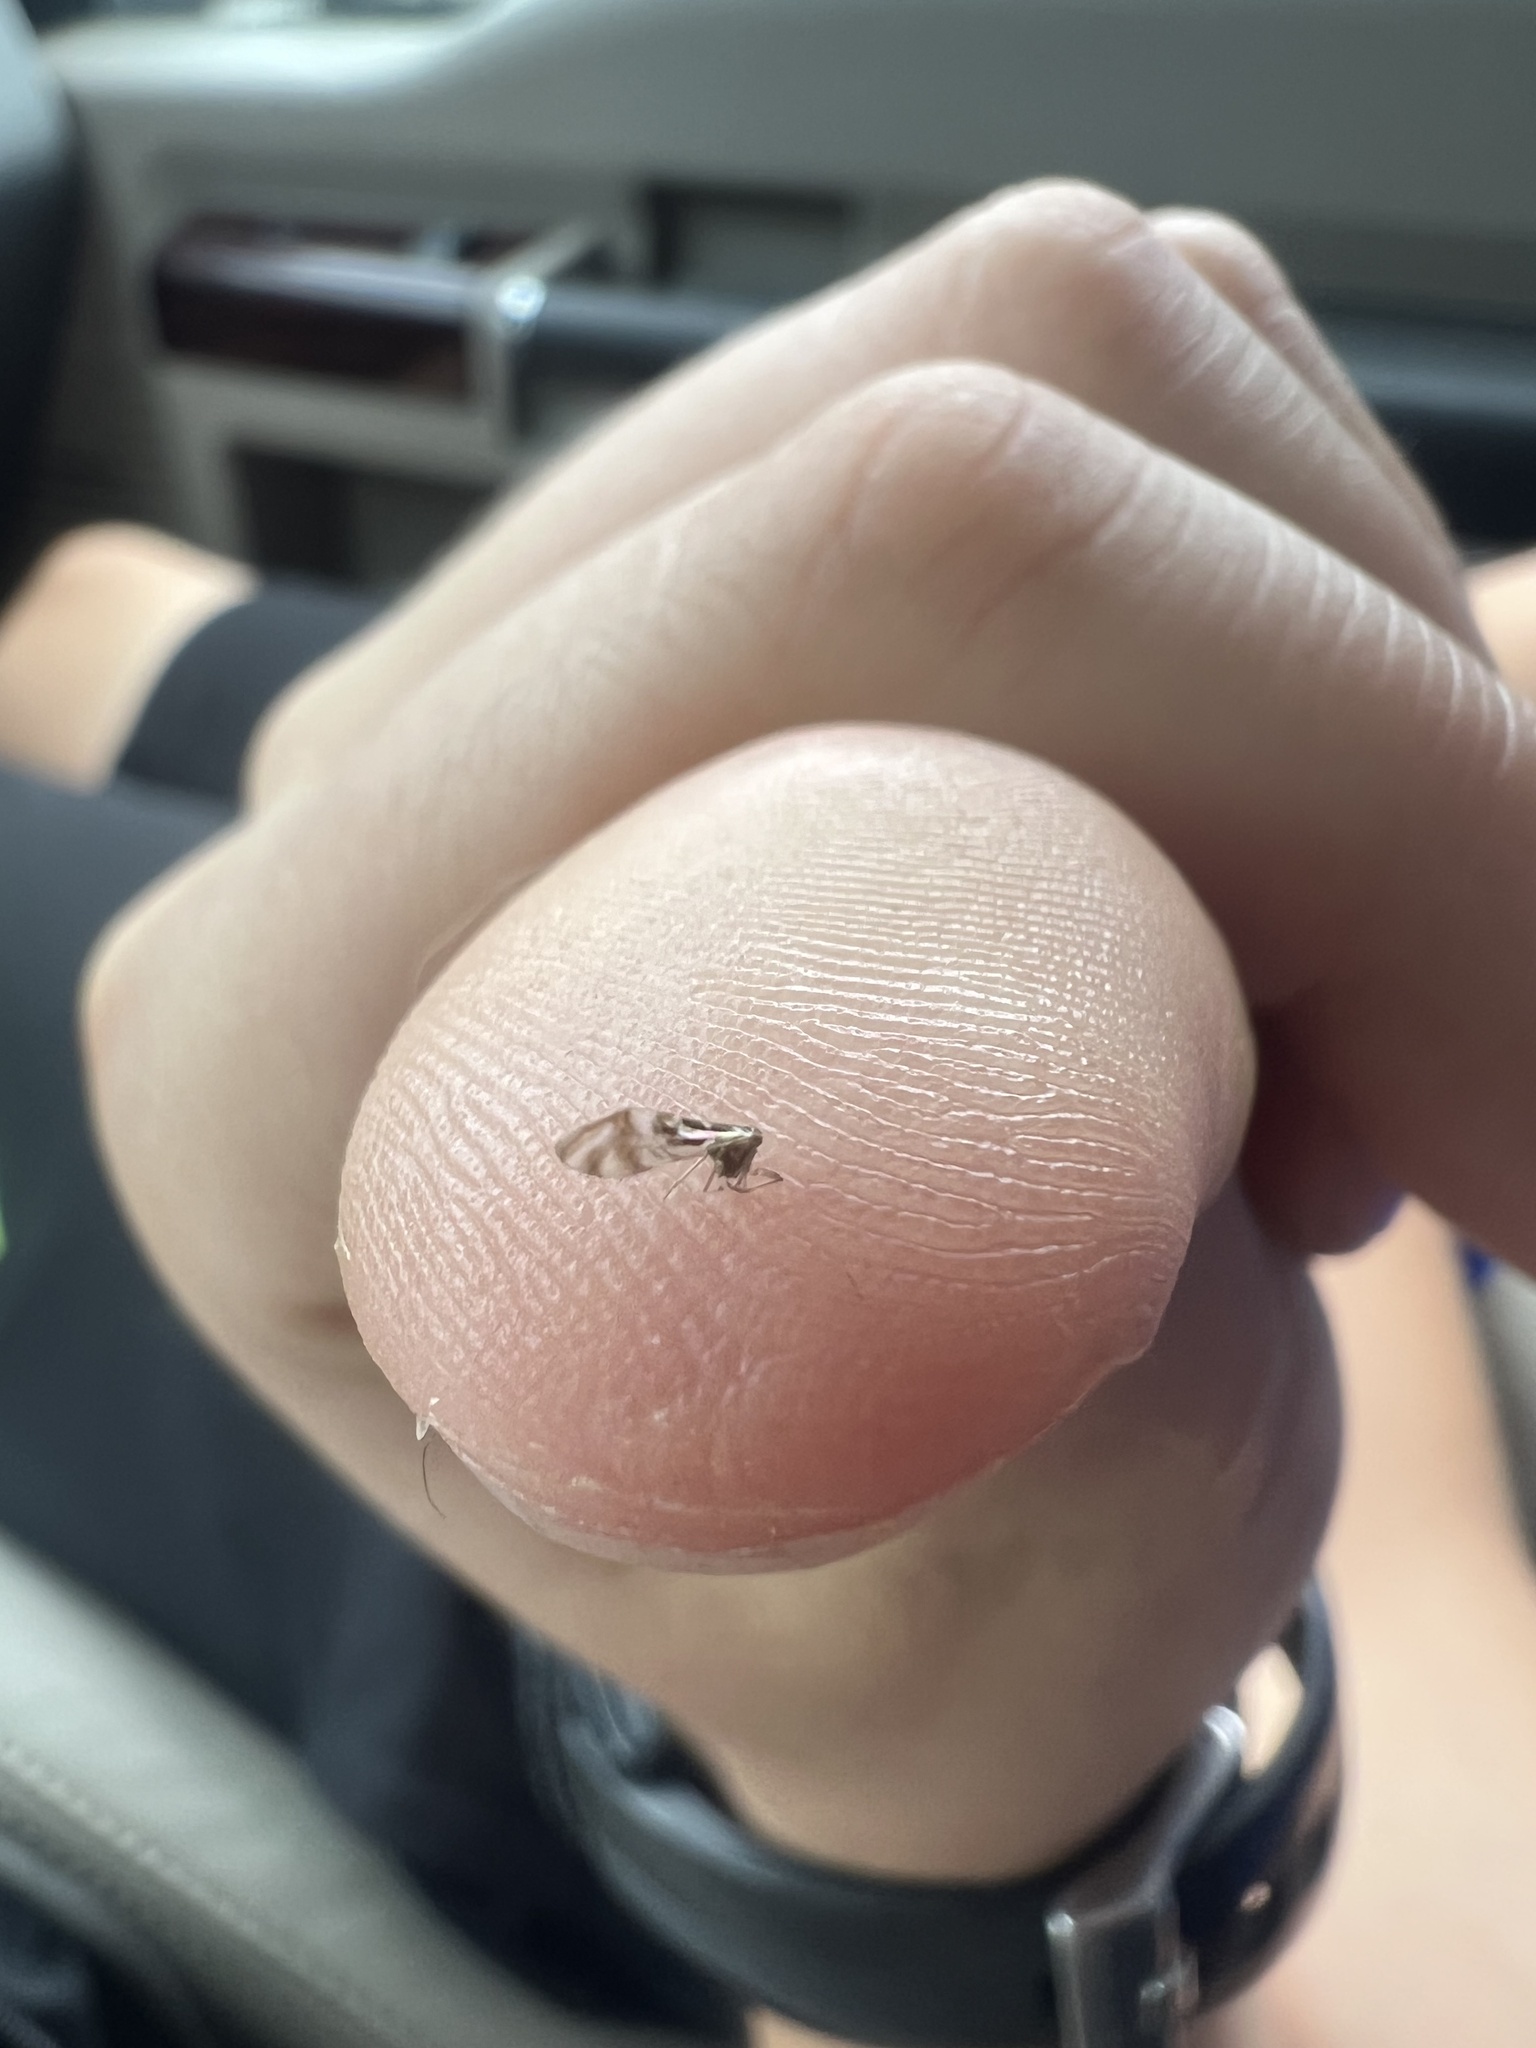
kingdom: Animalia
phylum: Arthropoda
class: Insecta
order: Psocodea
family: Stenopsocidae
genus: Graphopsocus
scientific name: Graphopsocus cruciatus
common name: Lizard bark louse
